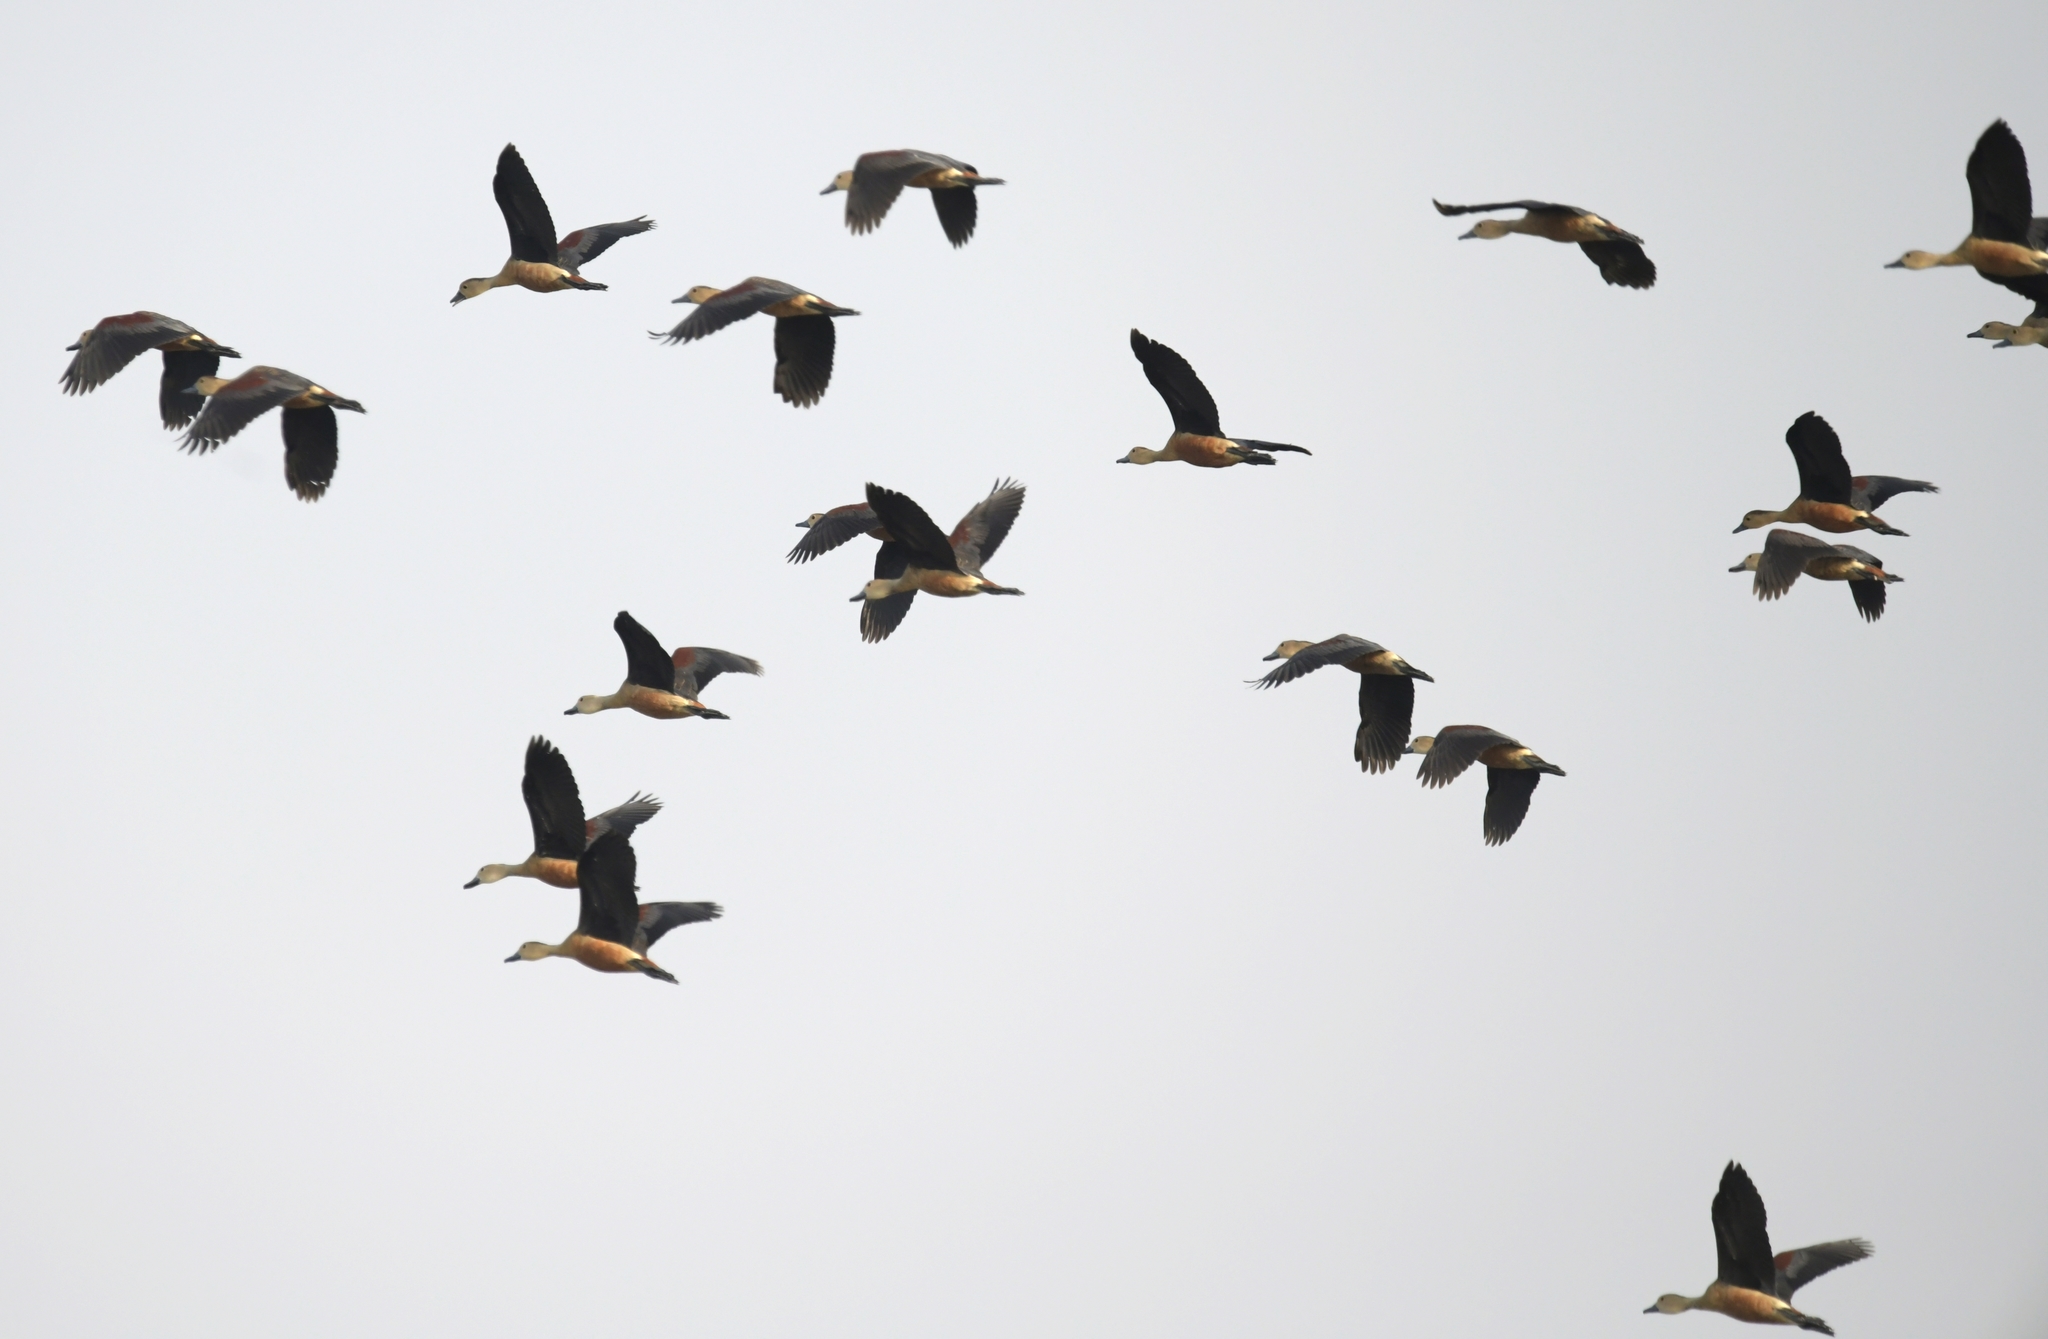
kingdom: Animalia
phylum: Chordata
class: Aves
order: Anseriformes
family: Anatidae
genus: Dendrocygna
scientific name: Dendrocygna javanica
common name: Lesser whistling-duck
